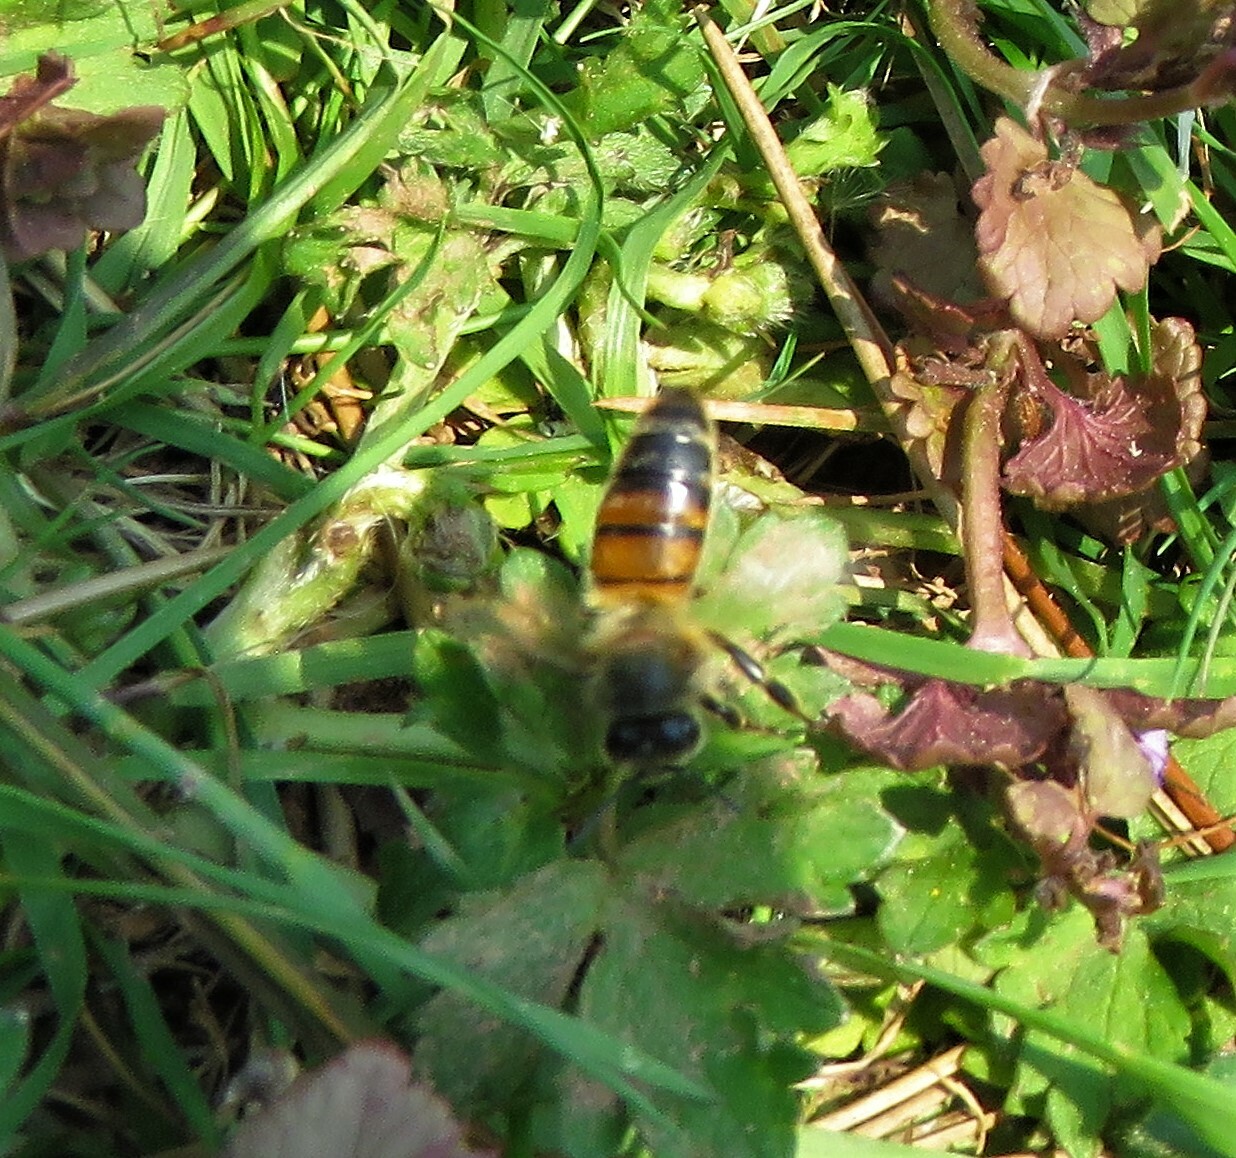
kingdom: Animalia
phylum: Arthropoda
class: Insecta
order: Hymenoptera
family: Apidae
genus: Apis
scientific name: Apis mellifera
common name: Honey bee
